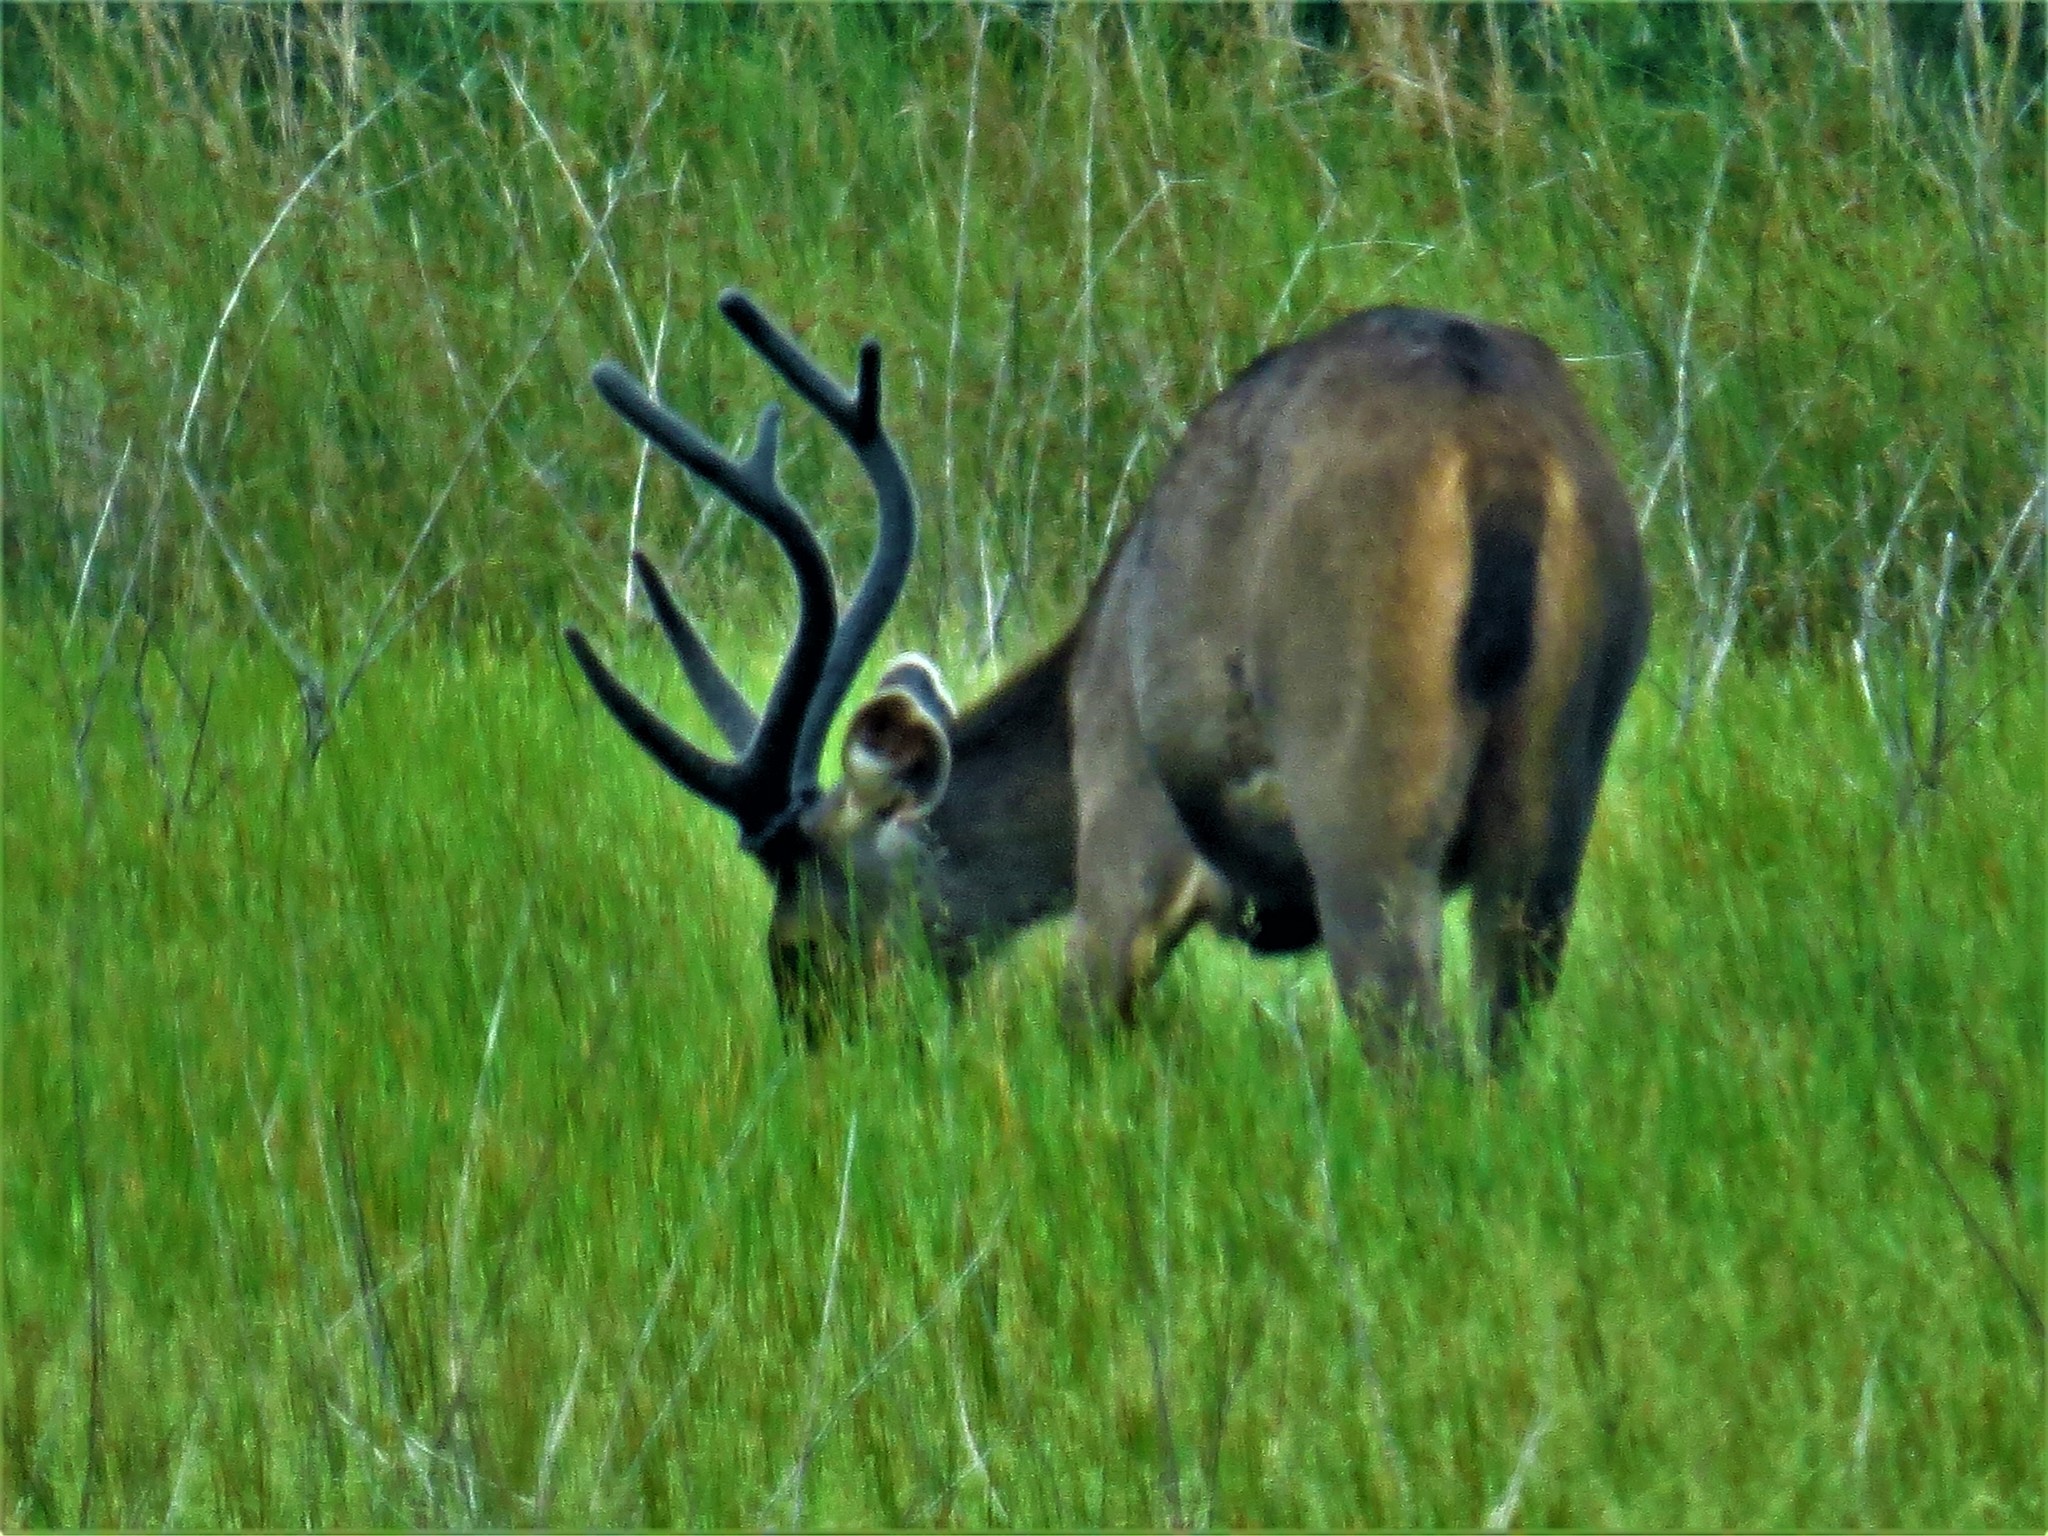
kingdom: Animalia
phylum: Chordata
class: Mammalia
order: Artiodactyla
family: Cervidae
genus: Rusa
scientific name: Rusa unicolor
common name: Sambar
